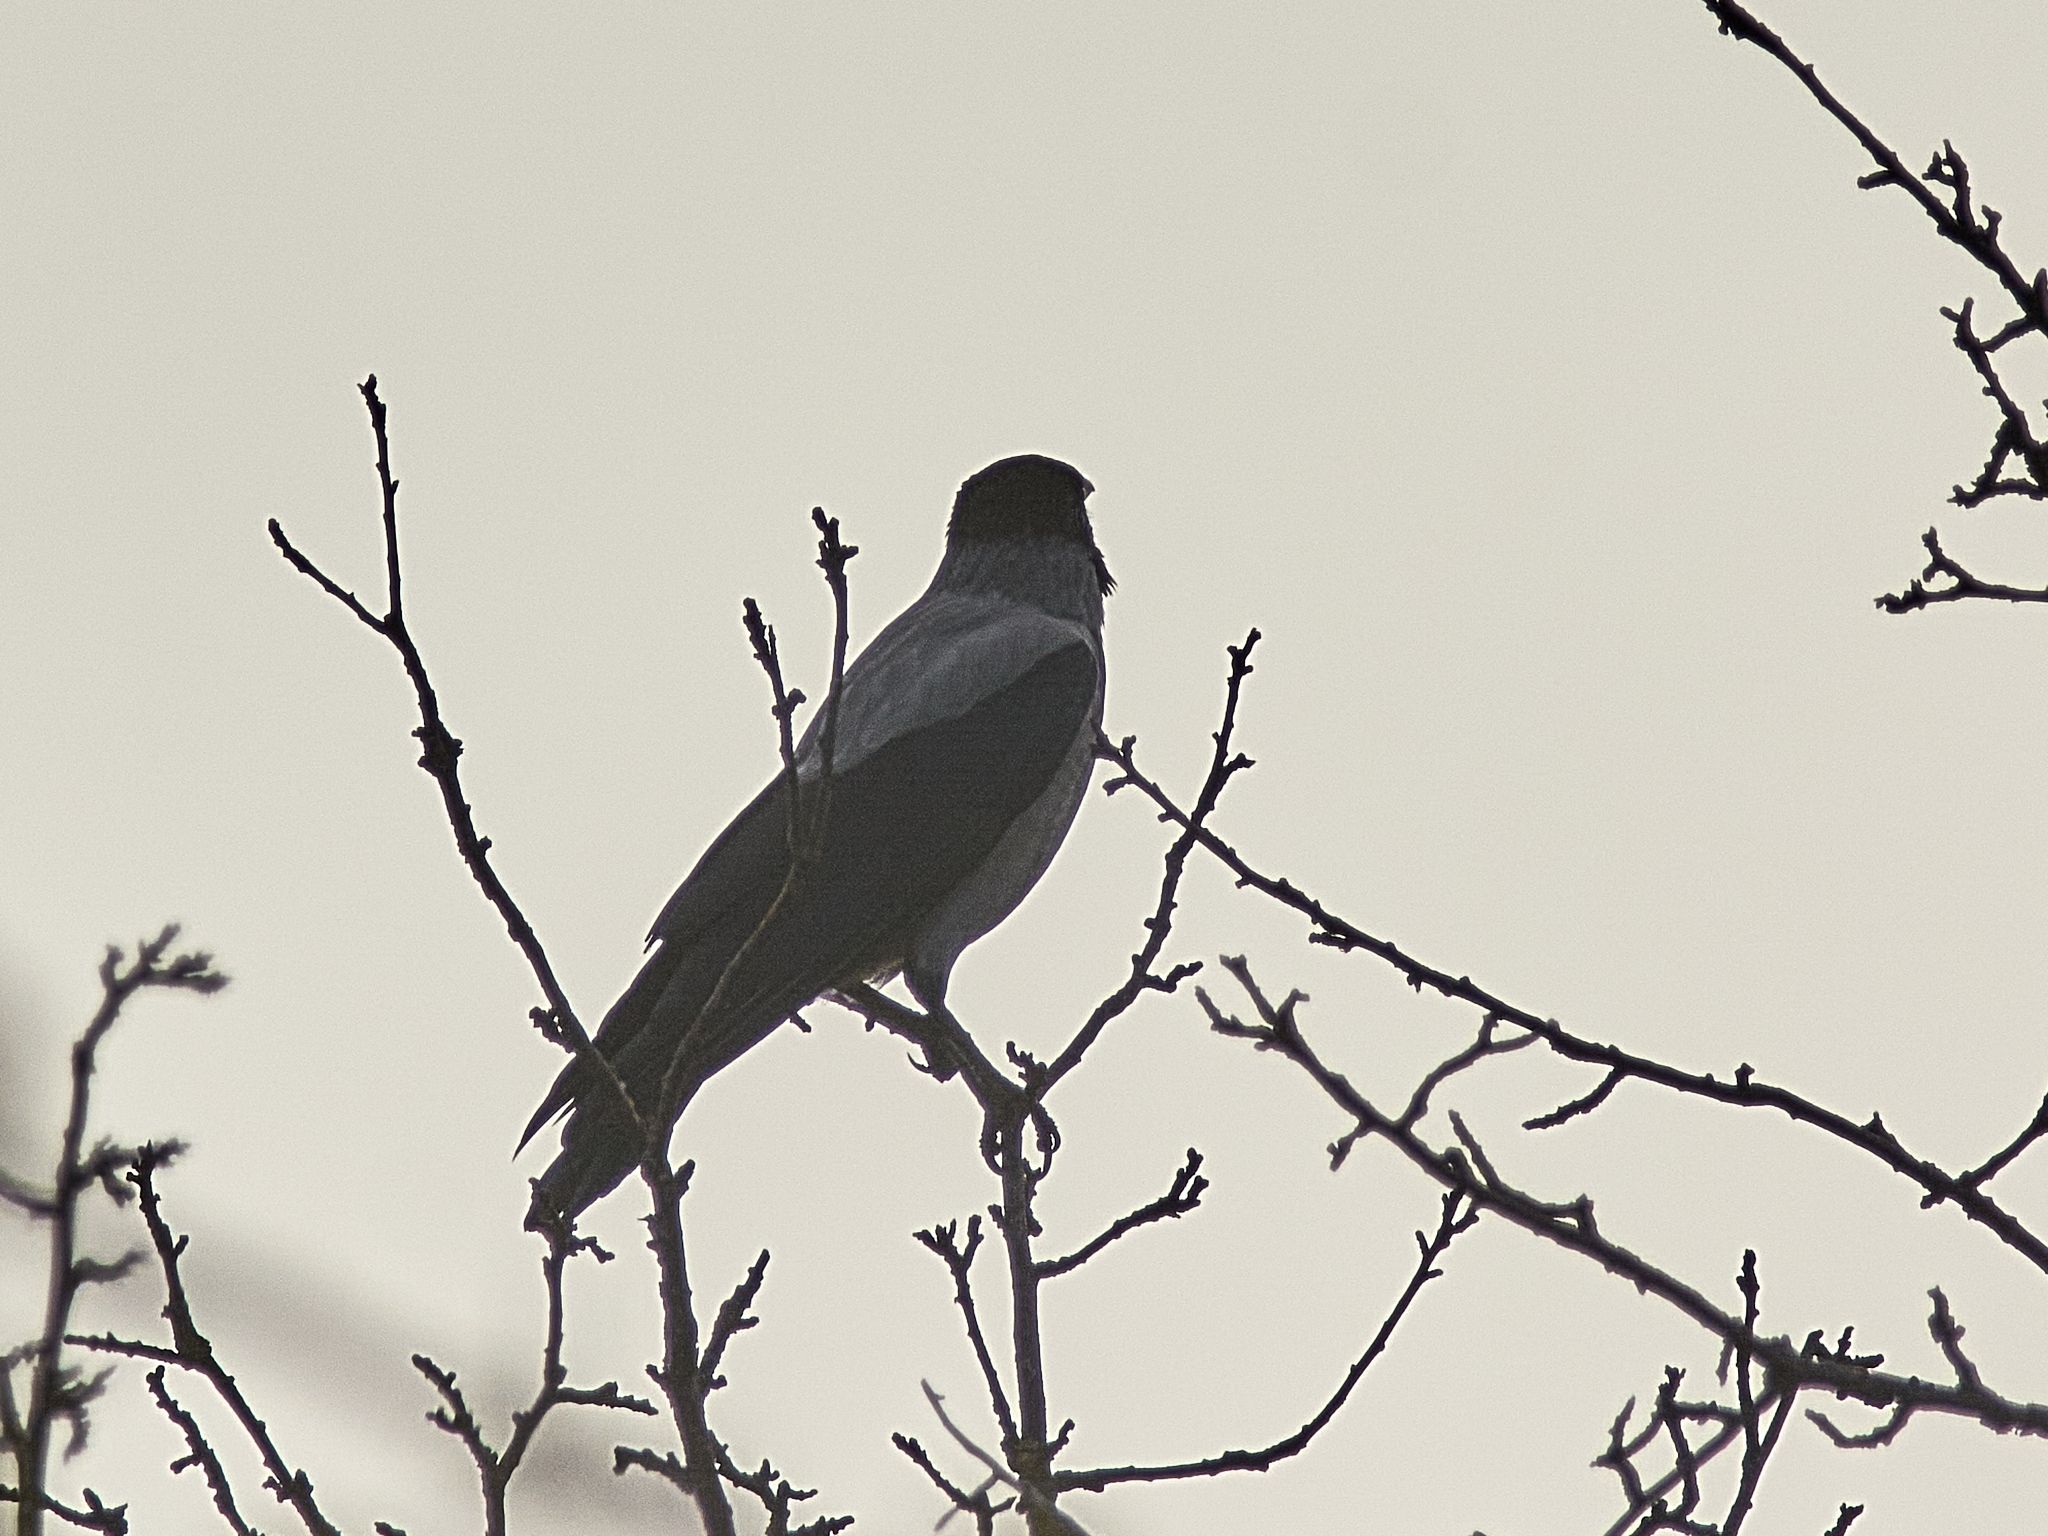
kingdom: Animalia
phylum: Chordata
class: Aves
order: Passeriformes
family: Corvidae
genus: Corvus
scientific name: Corvus cornix
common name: Hooded crow
